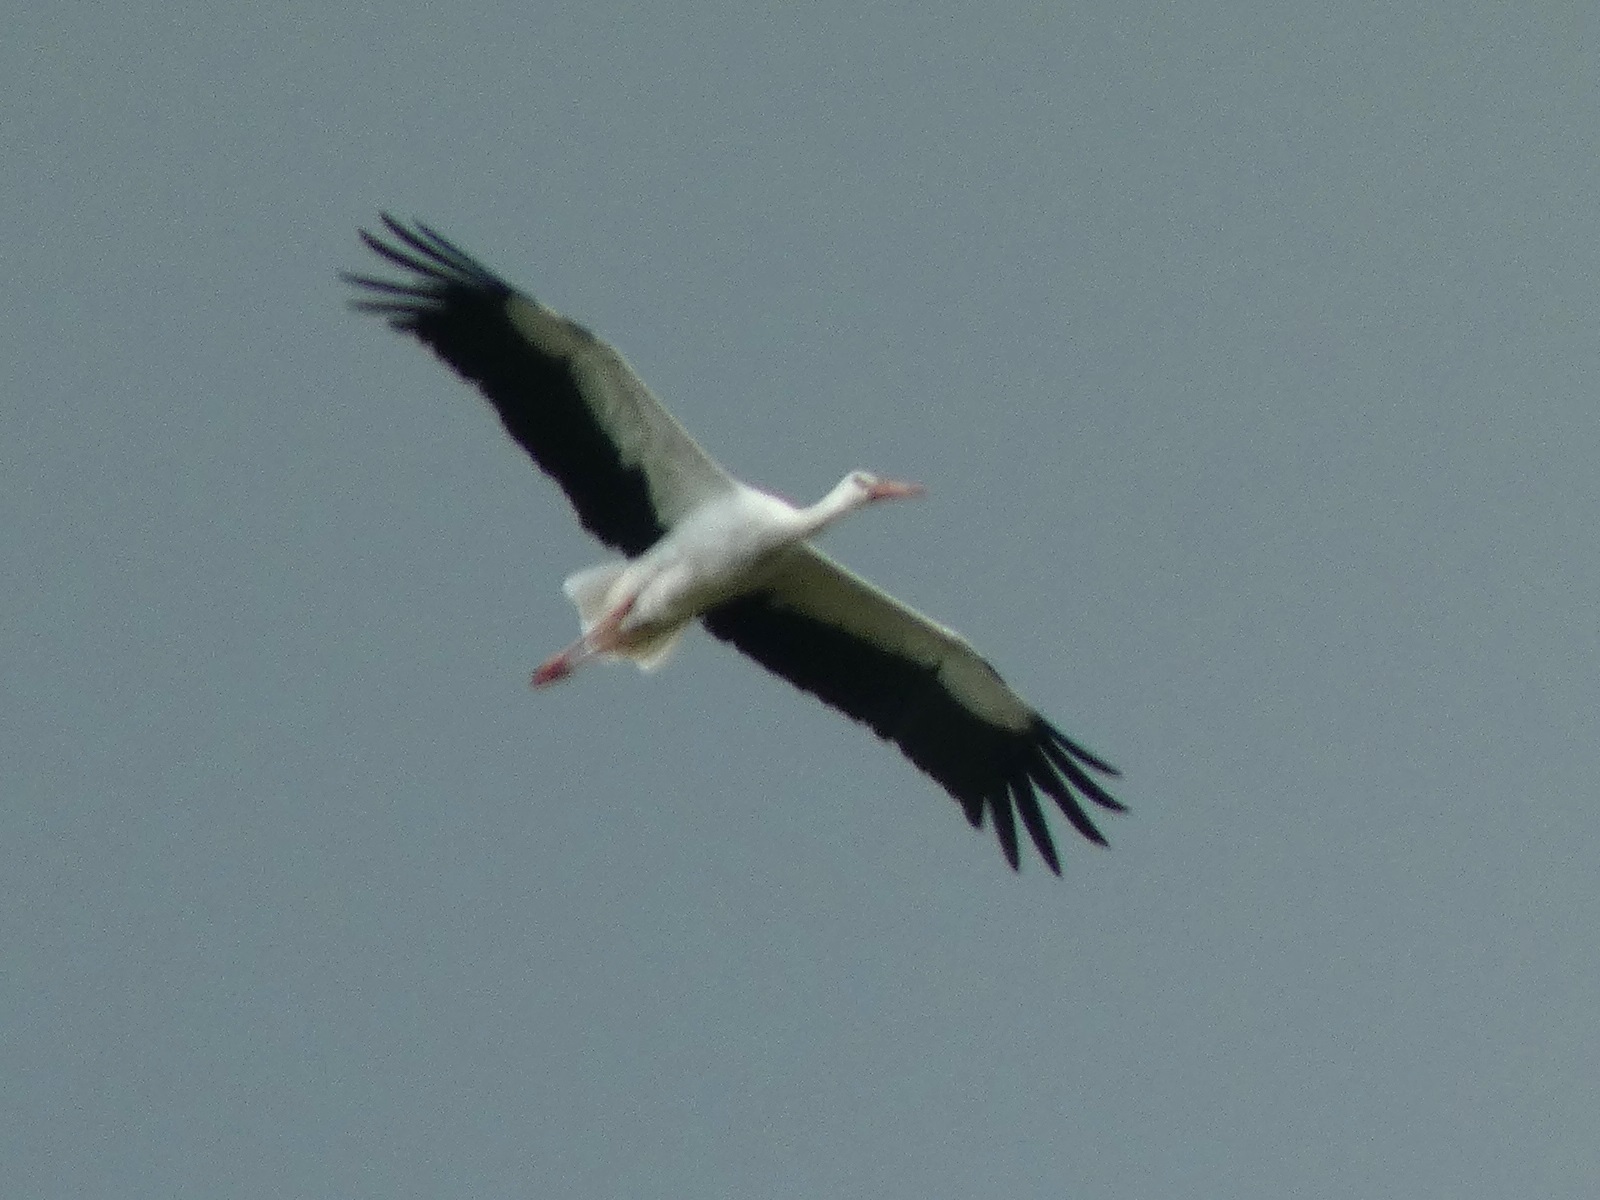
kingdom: Animalia
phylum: Chordata
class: Aves
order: Ciconiiformes
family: Ciconiidae
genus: Ciconia
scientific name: Ciconia ciconia
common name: White stork
